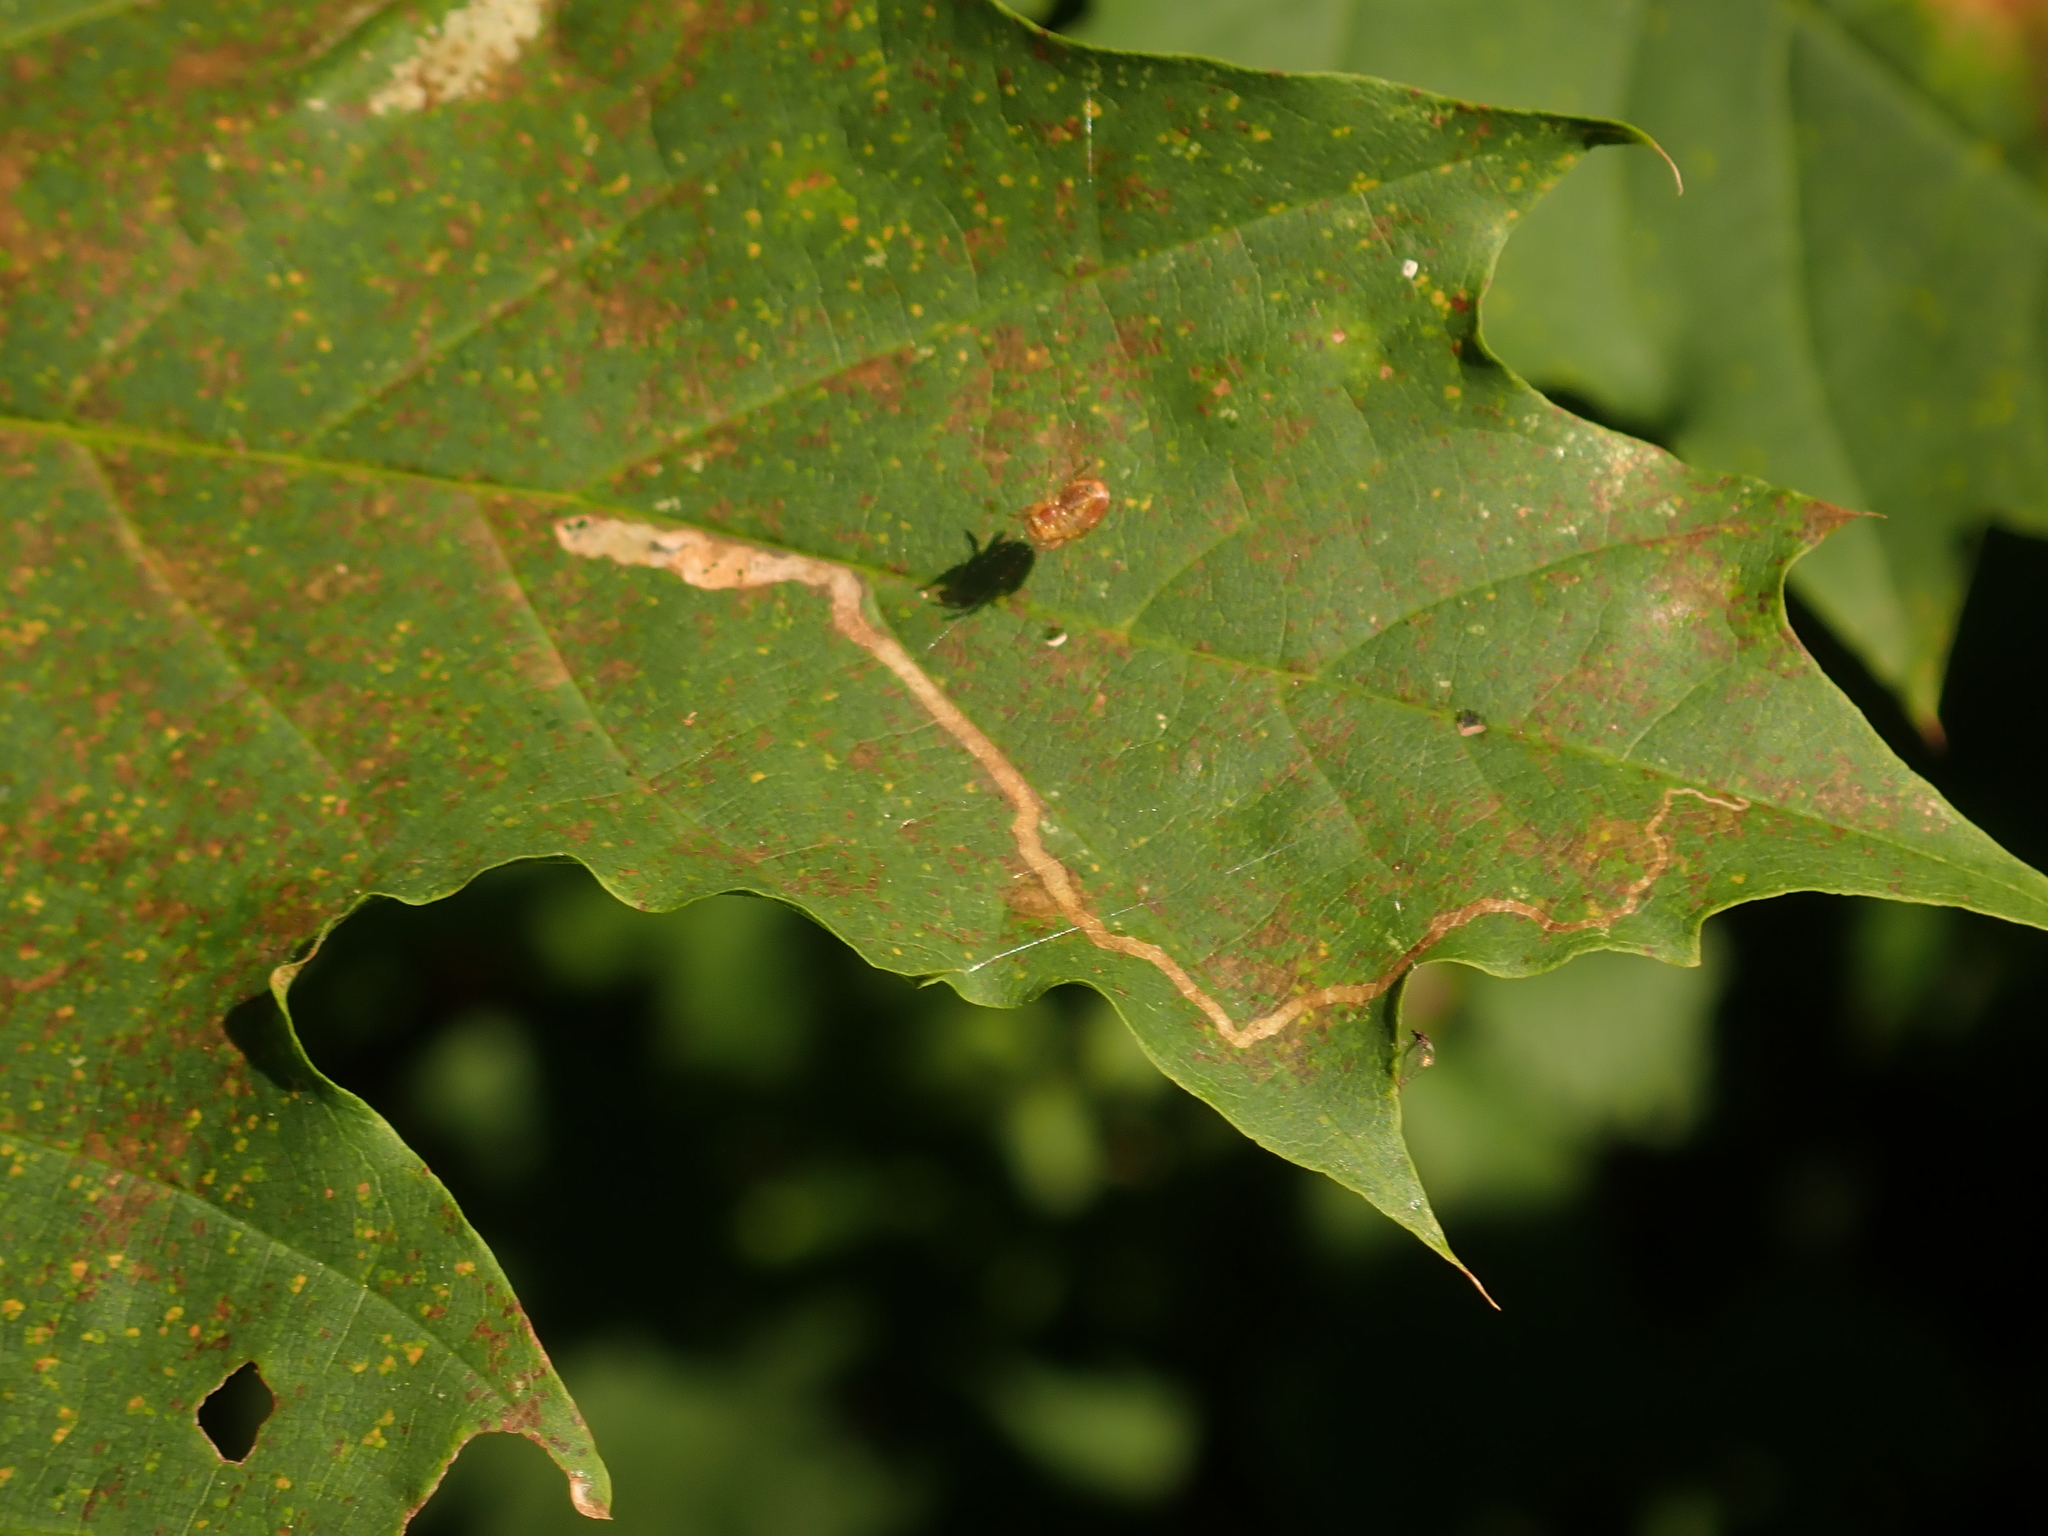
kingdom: Animalia
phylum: Arthropoda
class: Insecta
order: Lepidoptera
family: Nepticulidae
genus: Stigmella
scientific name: Stigmella aceris
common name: Scarce maple pigmy
